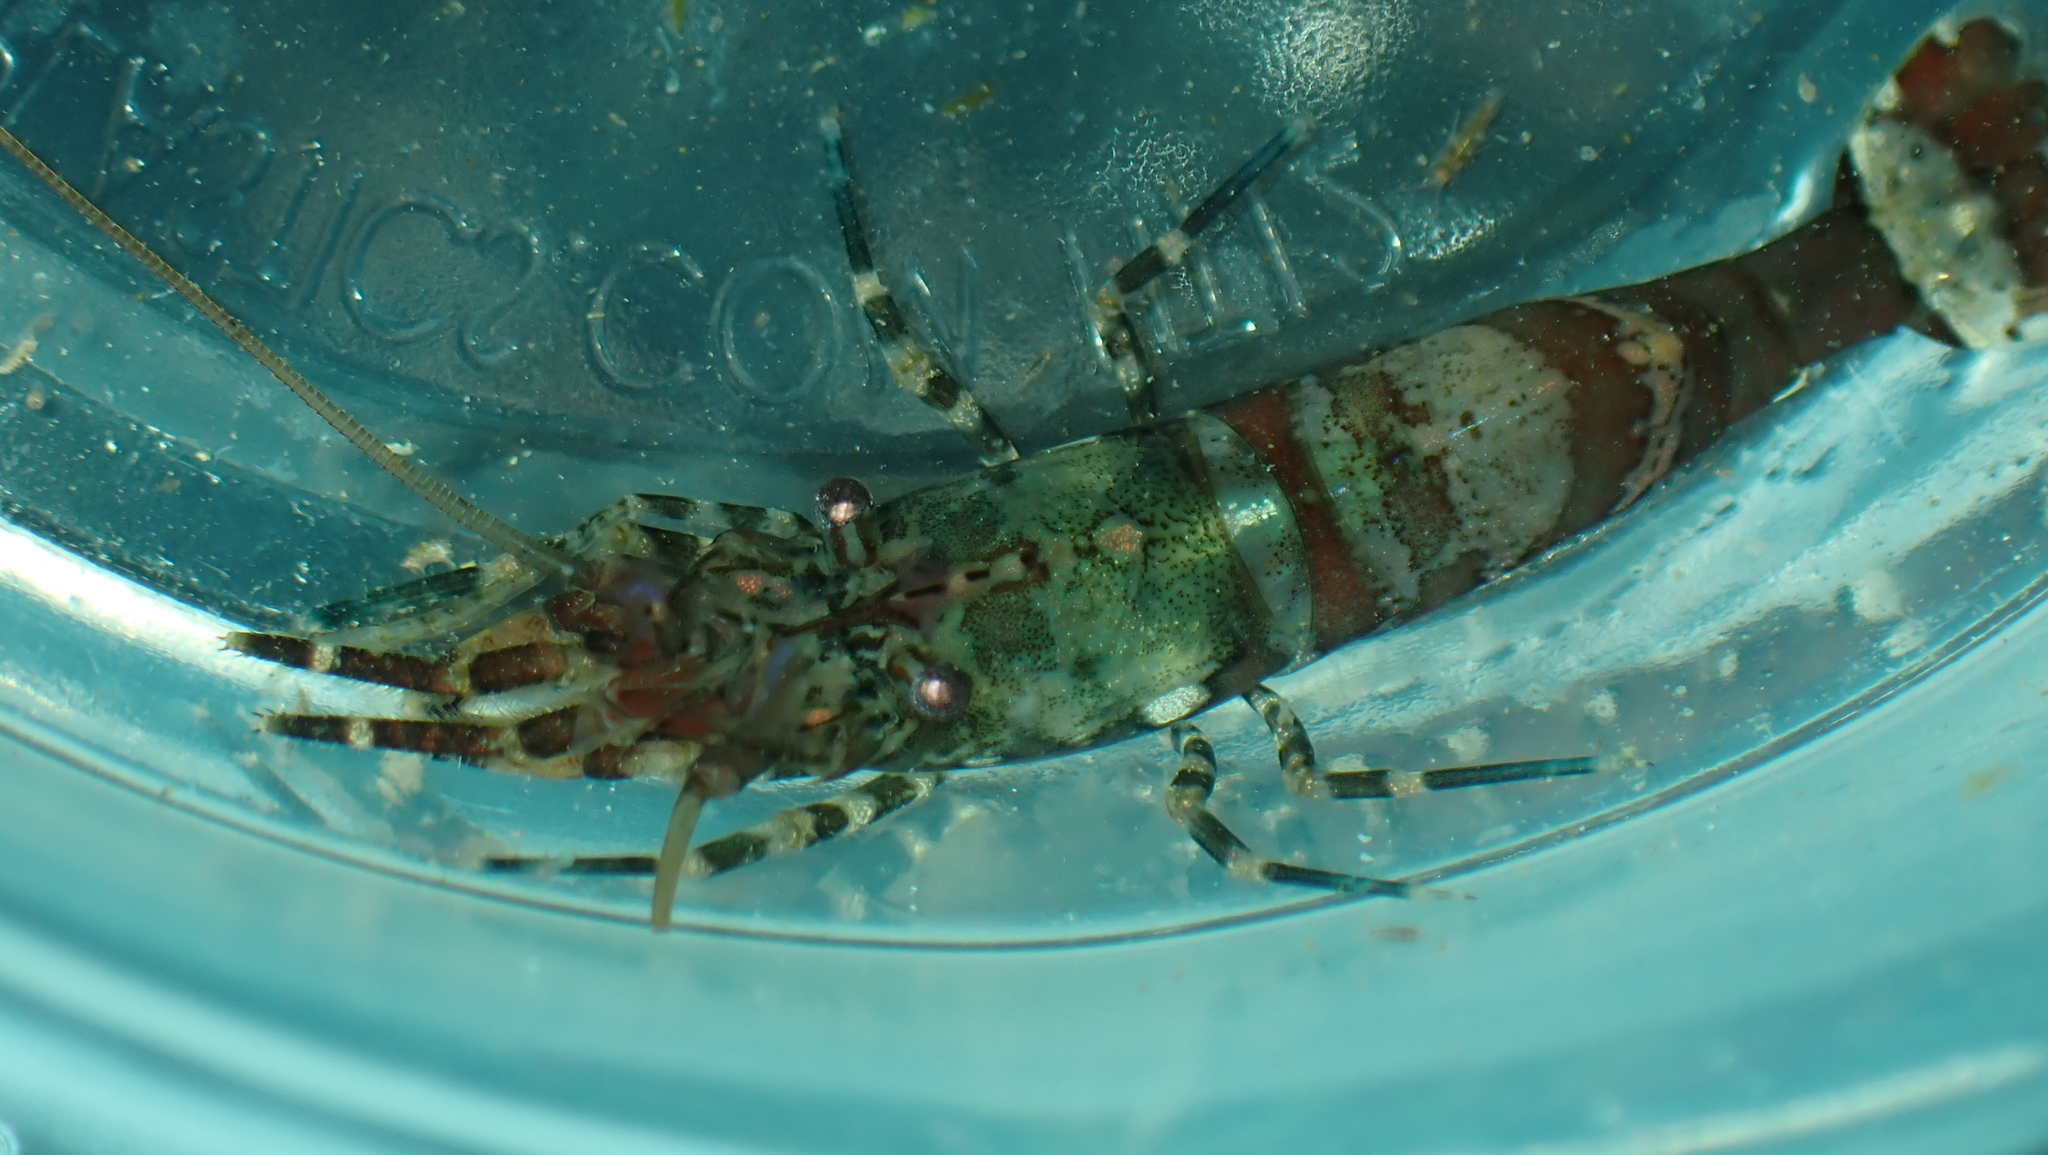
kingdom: Animalia
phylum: Arthropoda
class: Malacostraca
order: Decapoda
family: Thoridae
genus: Heptacarpus
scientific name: Heptacarpus brevirostris
